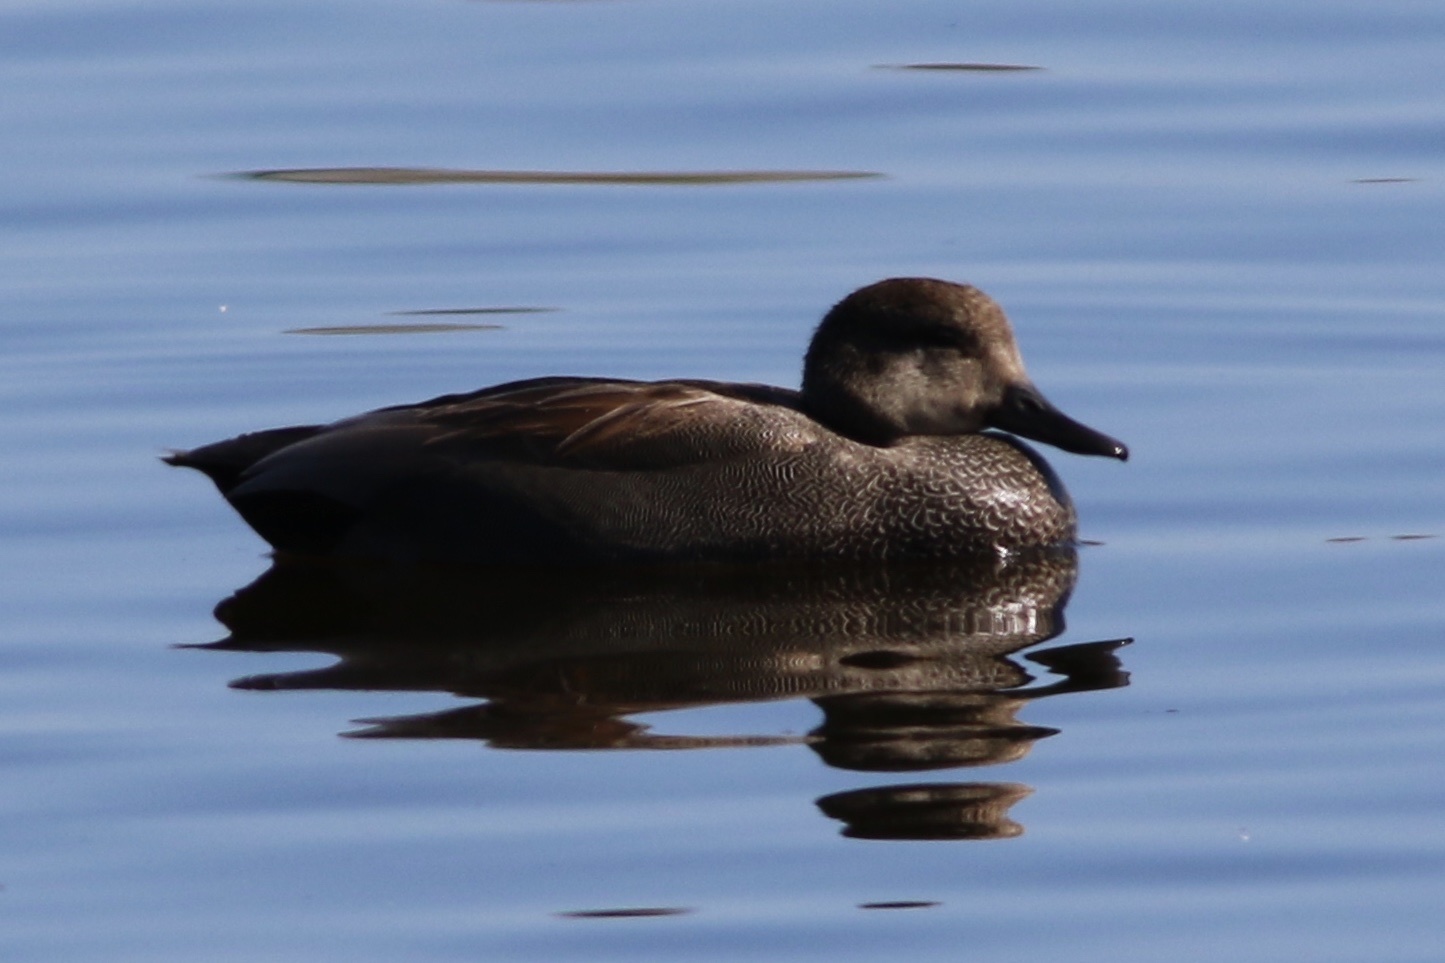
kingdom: Animalia
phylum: Chordata
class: Aves
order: Anseriformes
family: Anatidae
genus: Mareca
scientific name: Mareca strepera
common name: Gadwall
